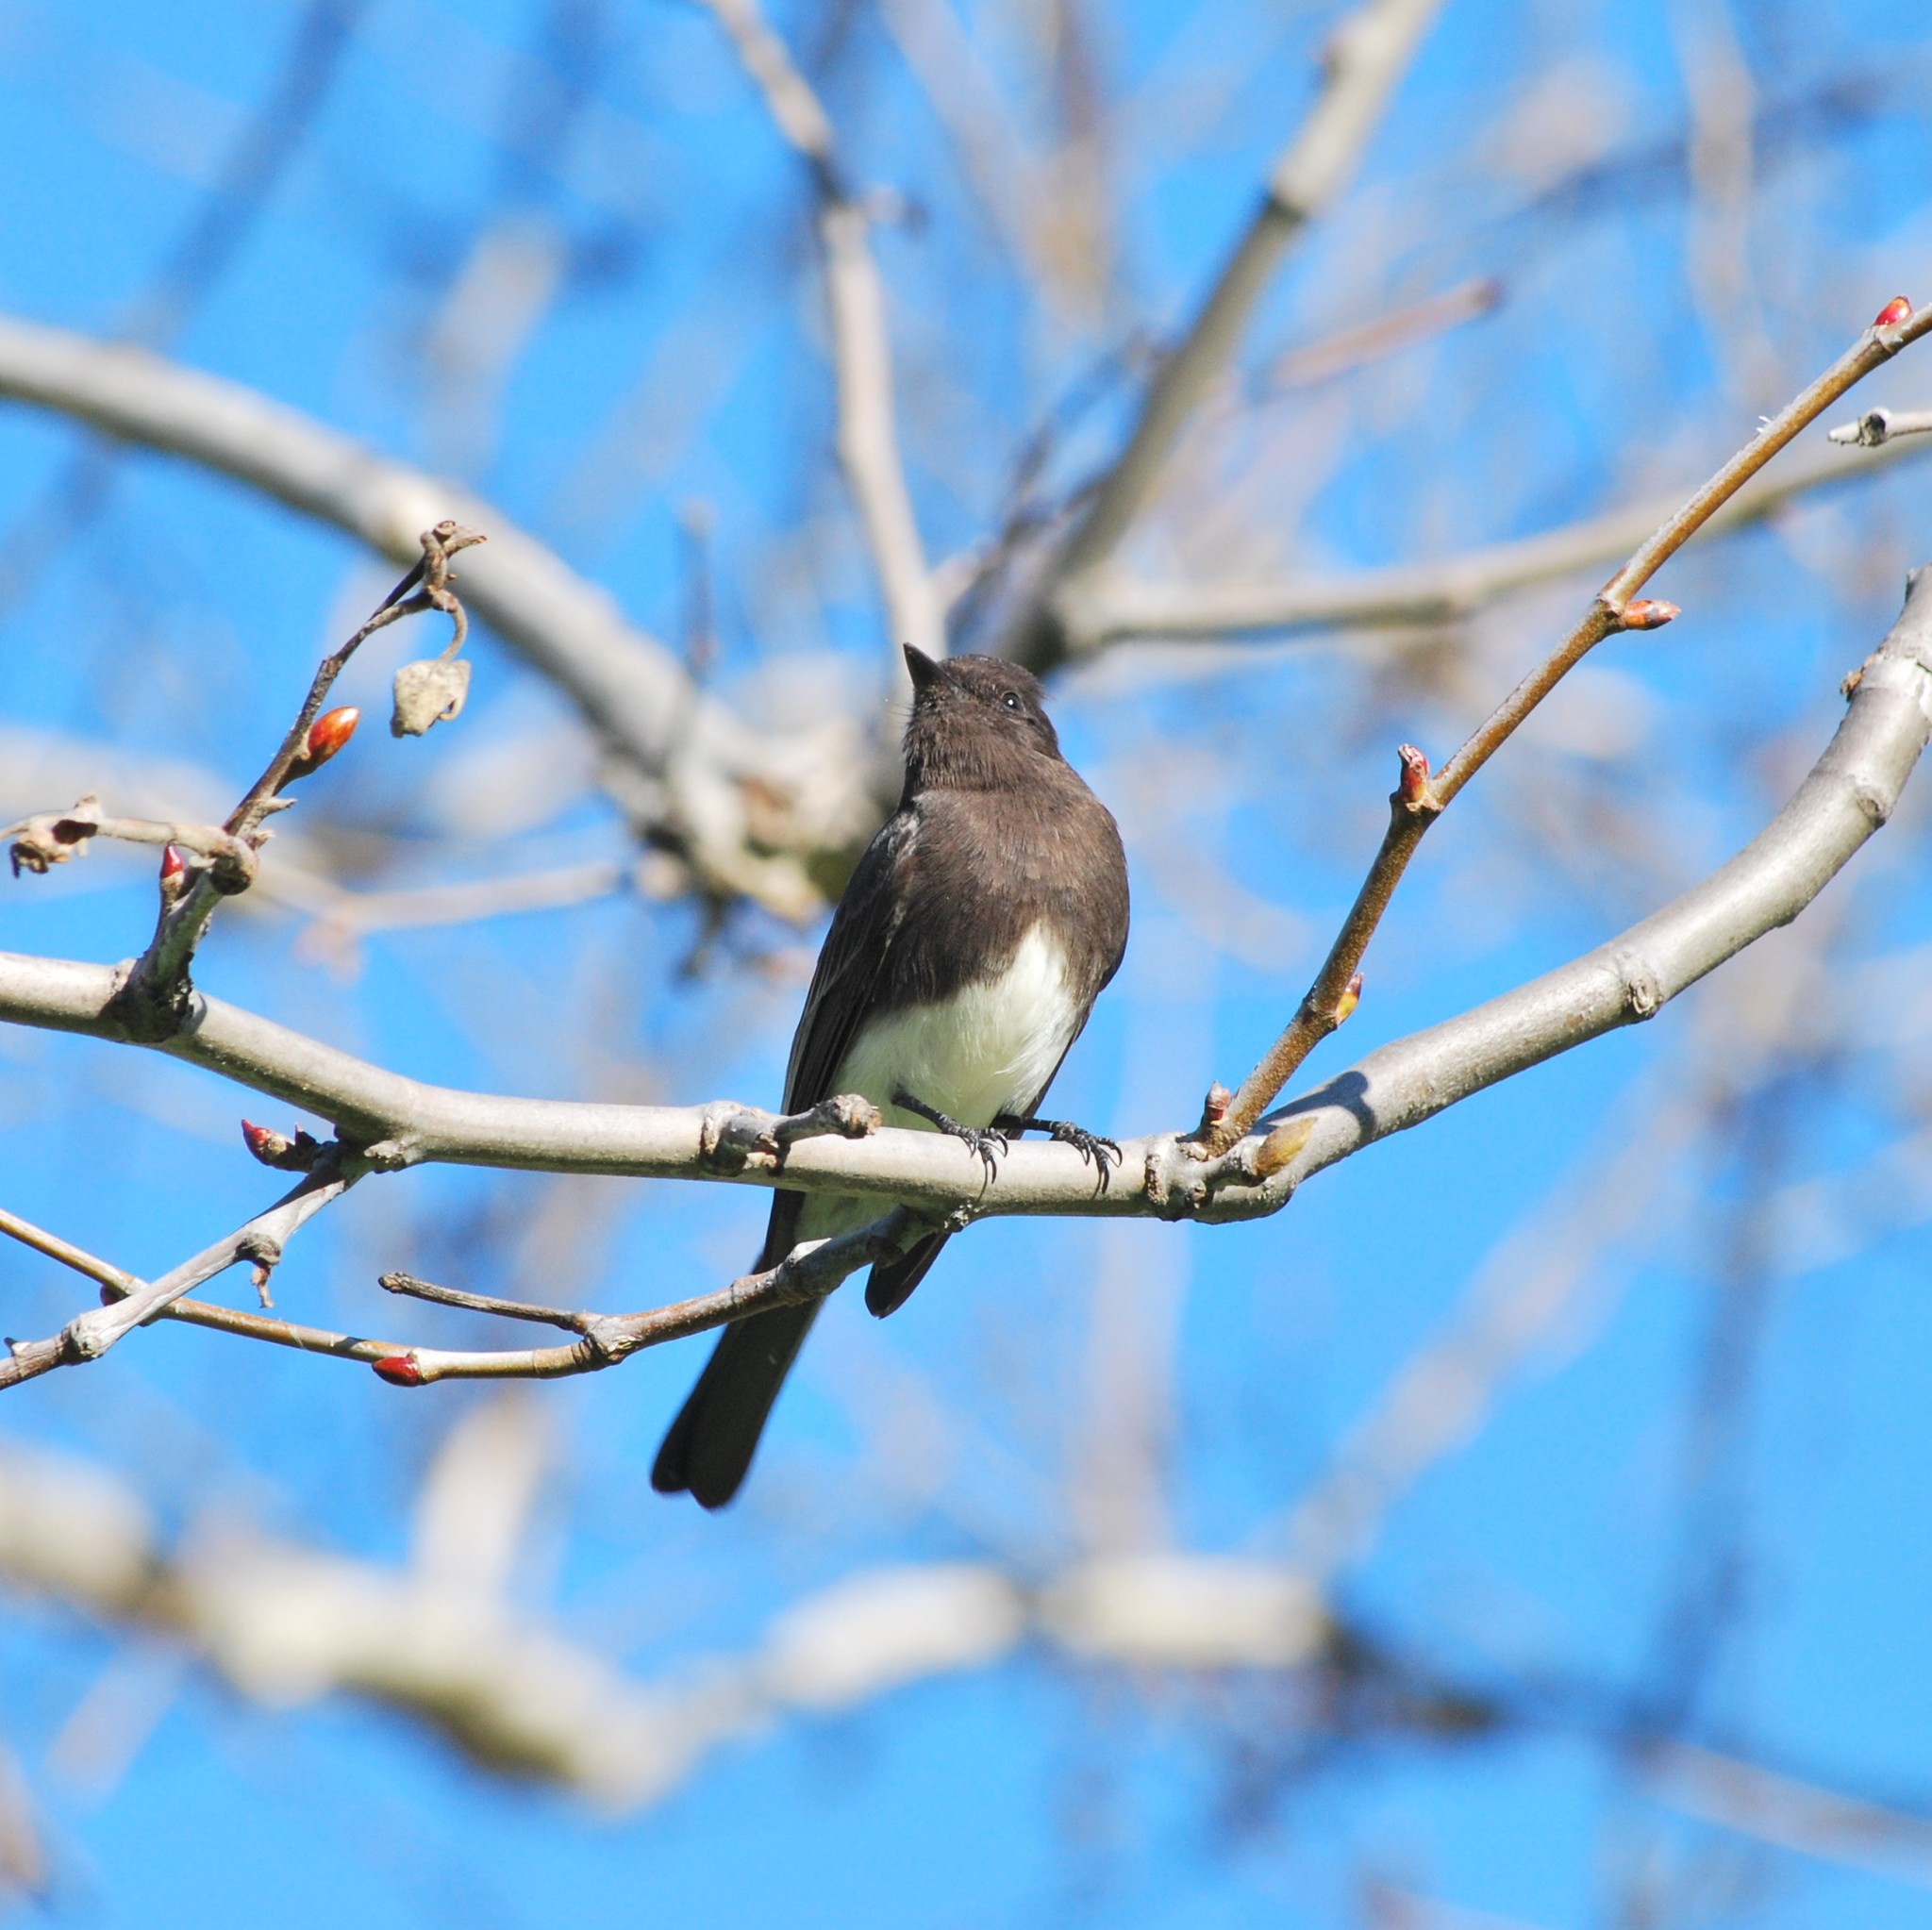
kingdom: Animalia
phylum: Chordata
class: Aves
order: Passeriformes
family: Tyrannidae
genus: Sayornis
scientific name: Sayornis nigricans
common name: Black phoebe
